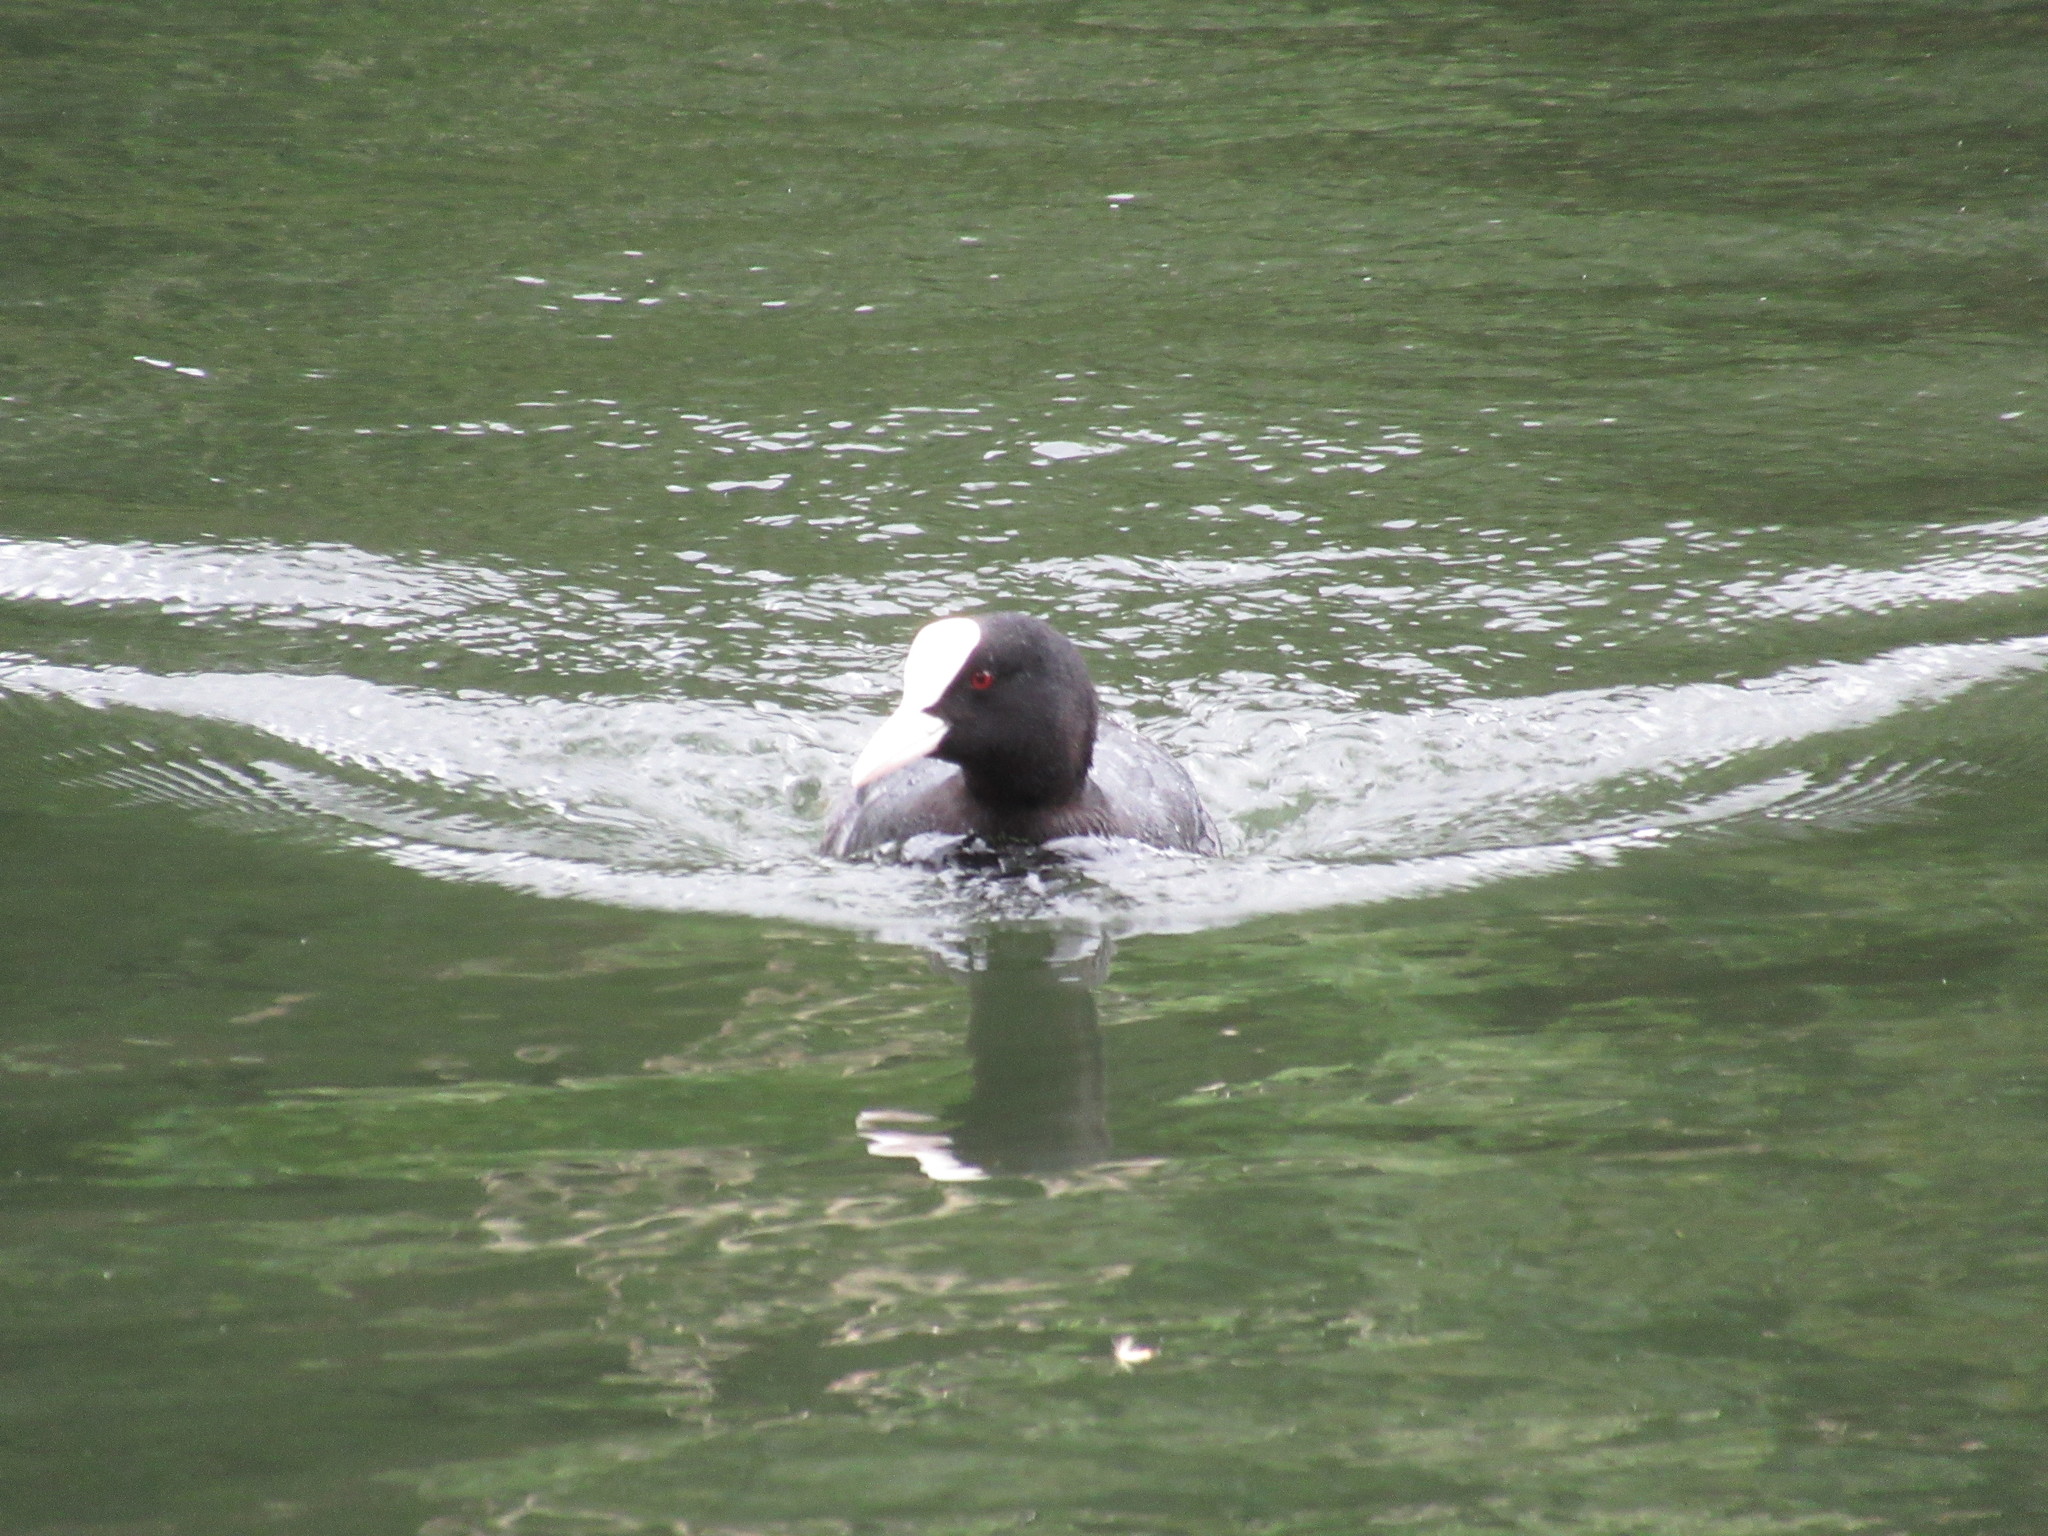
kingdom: Animalia
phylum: Chordata
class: Aves
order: Gruiformes
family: Rallidae
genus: Fulica
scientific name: Fulica atra
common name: Eurasian coot
